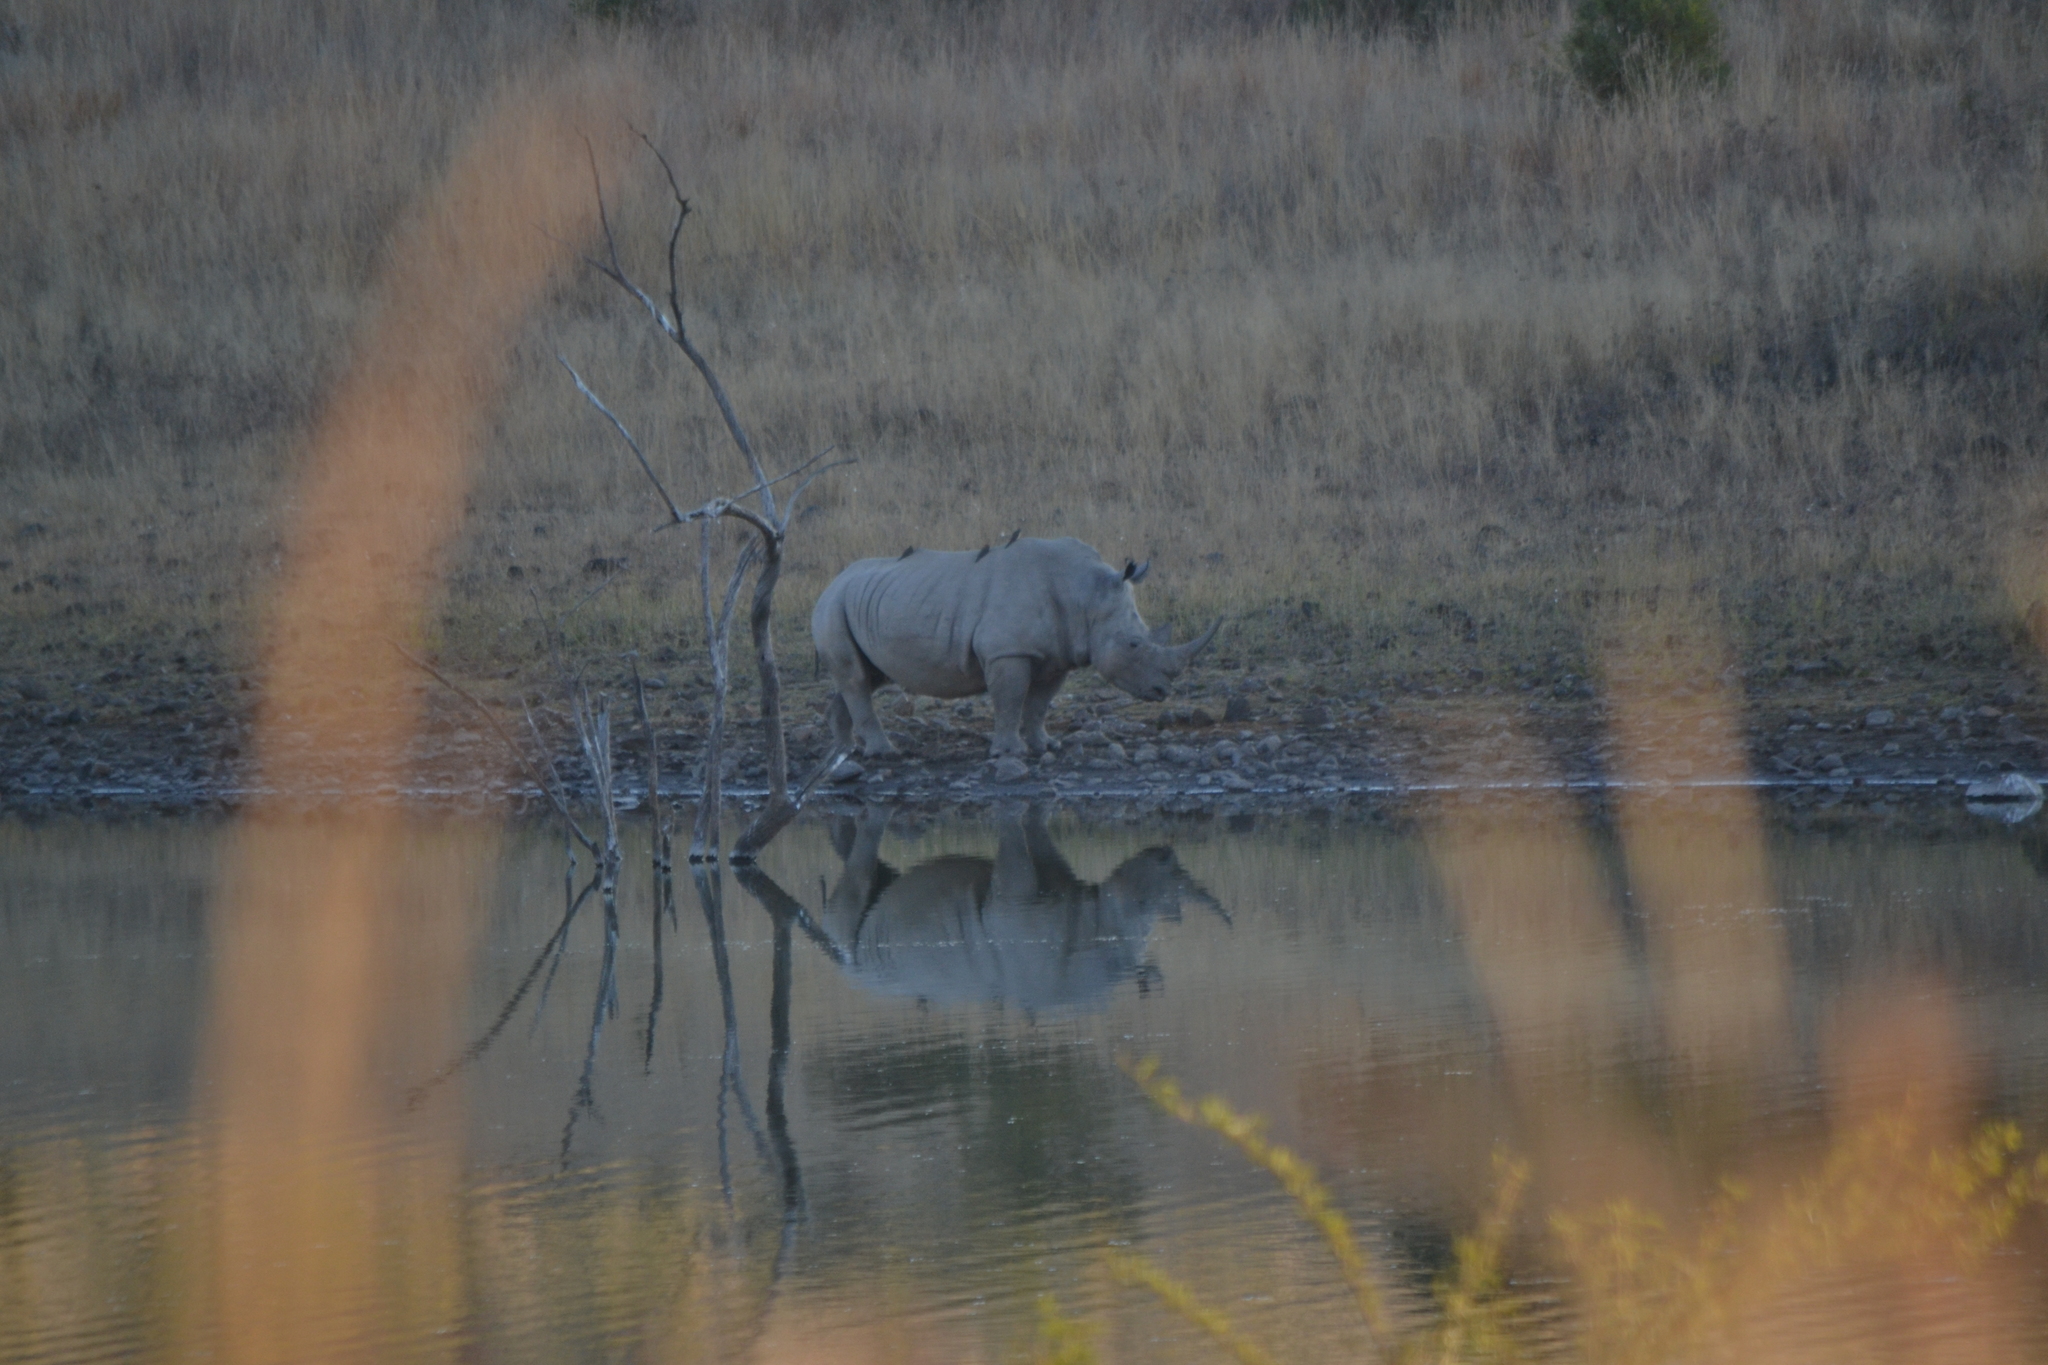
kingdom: Animalia
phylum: Chordata
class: Mammalia
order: Perissodactyla
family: Rhinocerotidae
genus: Ceratotherium
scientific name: Ceratotherium simum
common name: White rhinoceros
